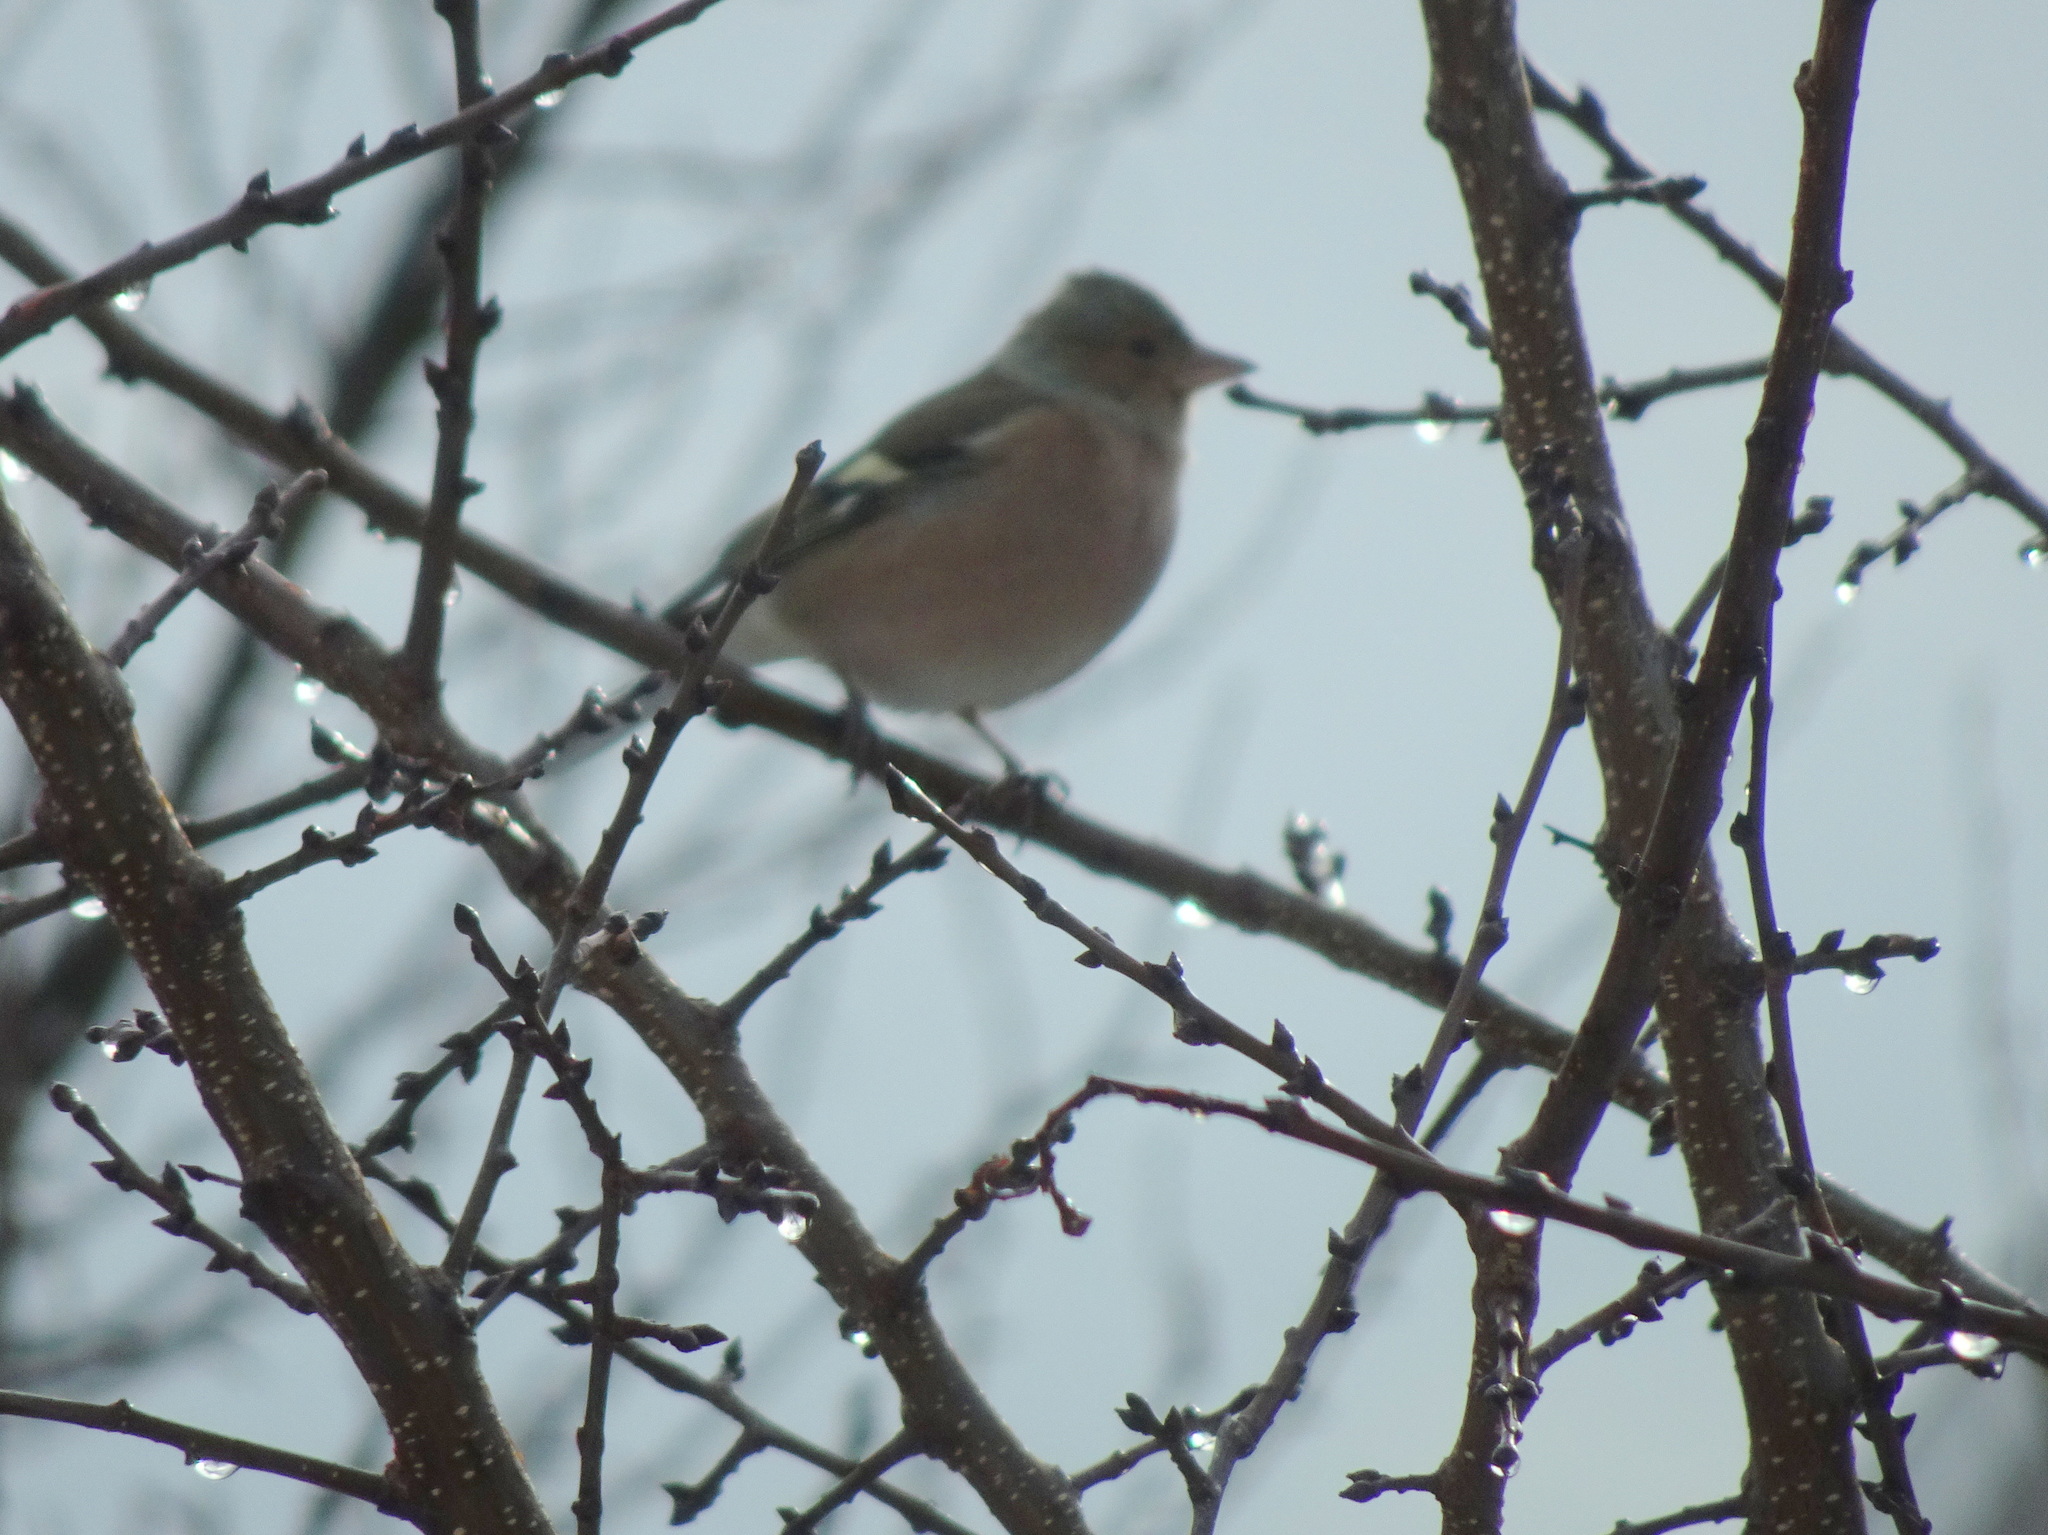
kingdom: Animalia
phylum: Chordata
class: Aves
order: Passeriformes
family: Fringillidae
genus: Fringilla
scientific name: Fringilla coelebs
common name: Common chaffinch
